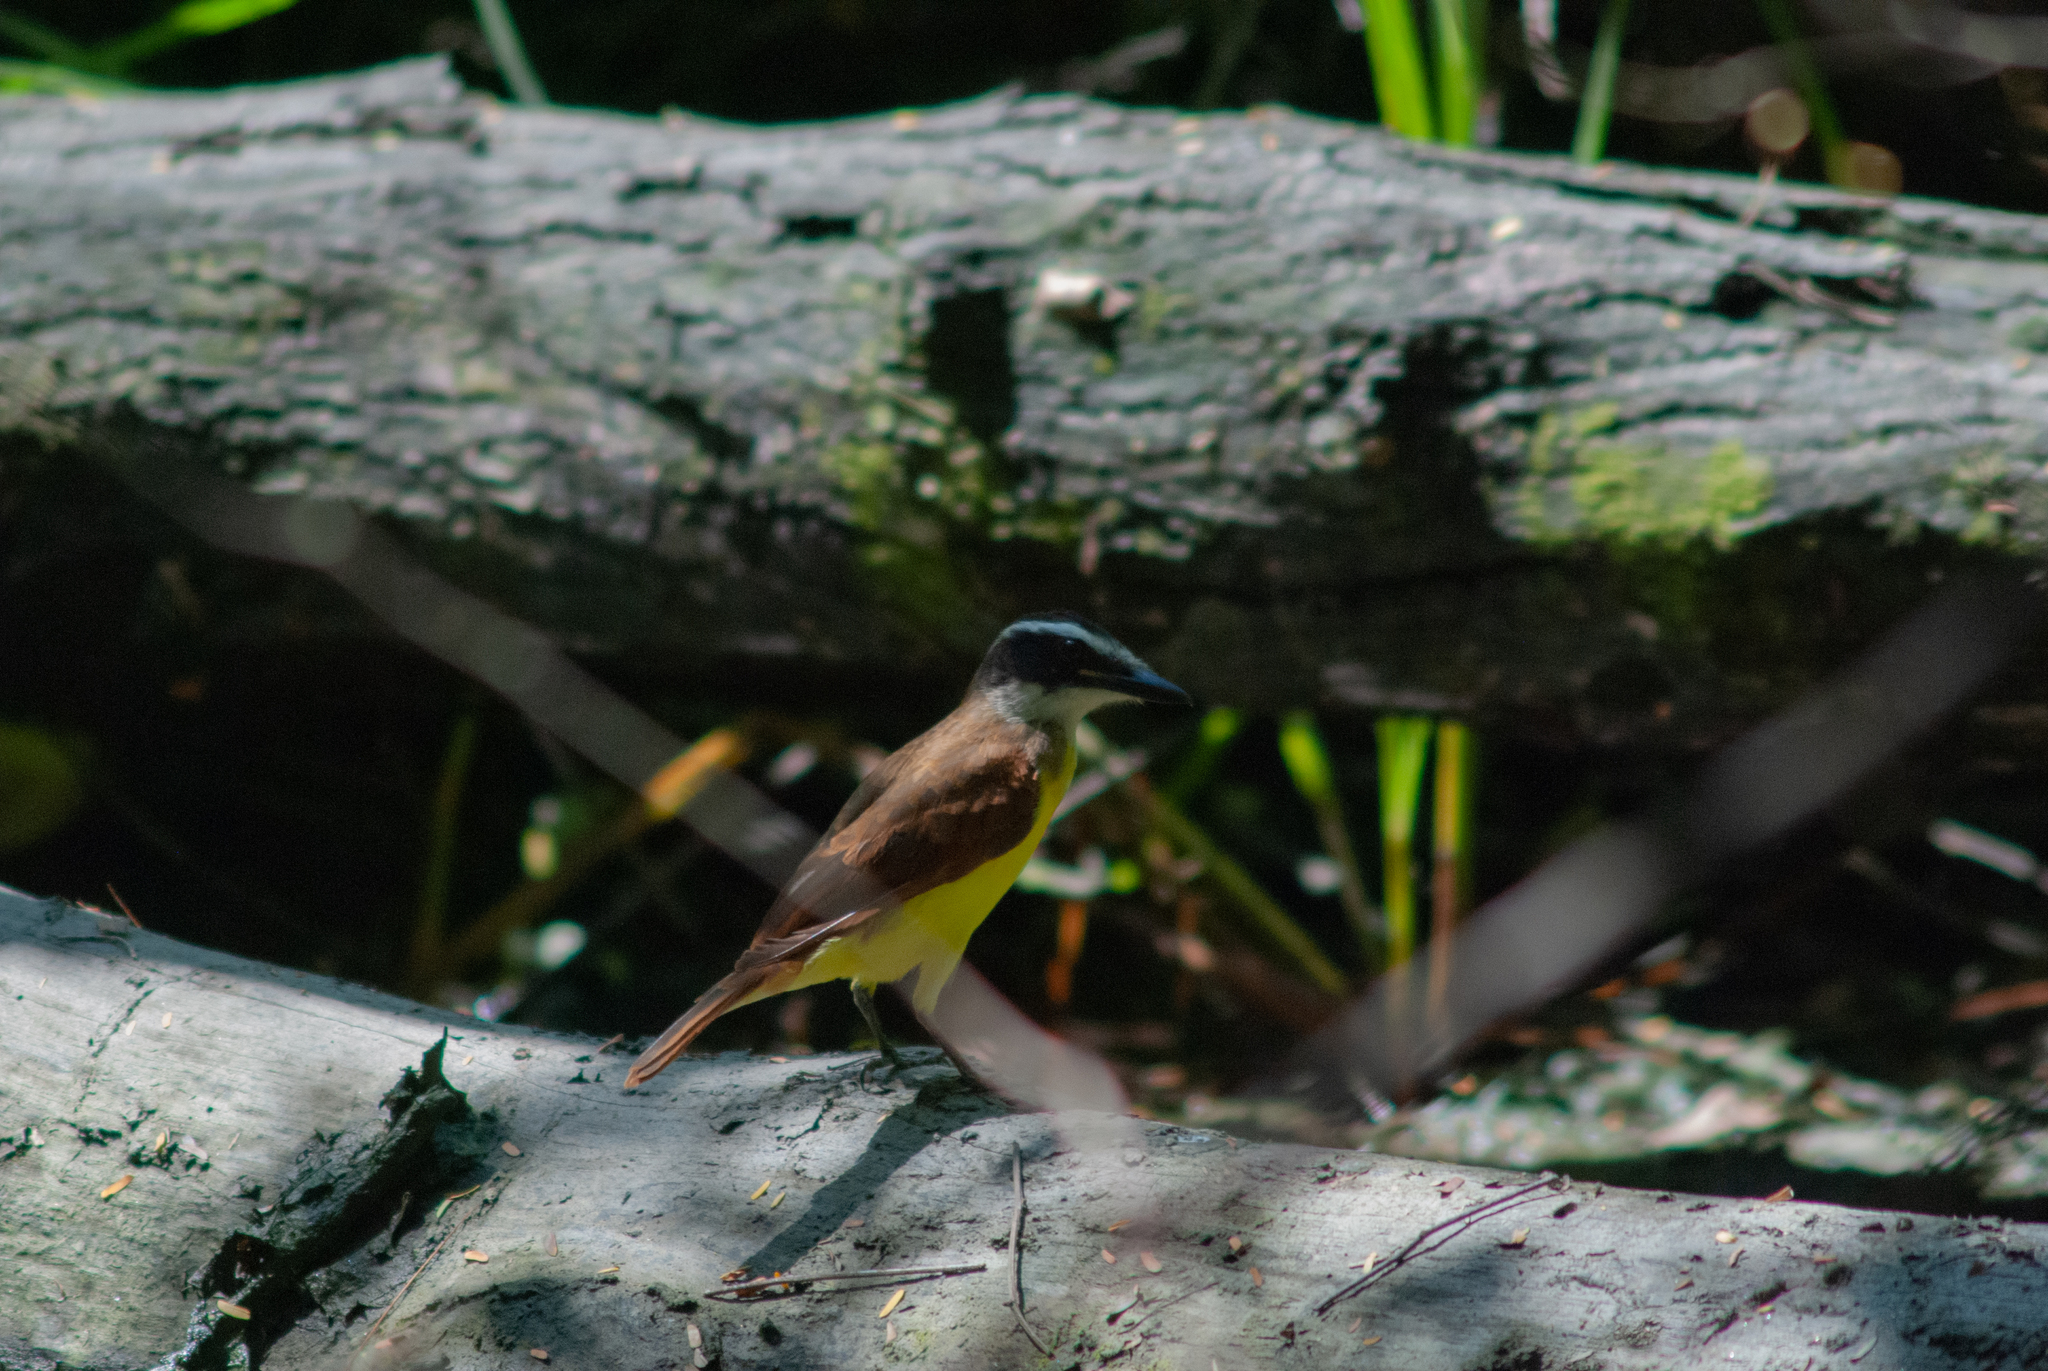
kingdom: Animalia
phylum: Chordata
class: Aves
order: Passeriformes
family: Tyrannidae
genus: Pitangus
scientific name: Pitangus sulphuratus
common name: Great kiskadee
